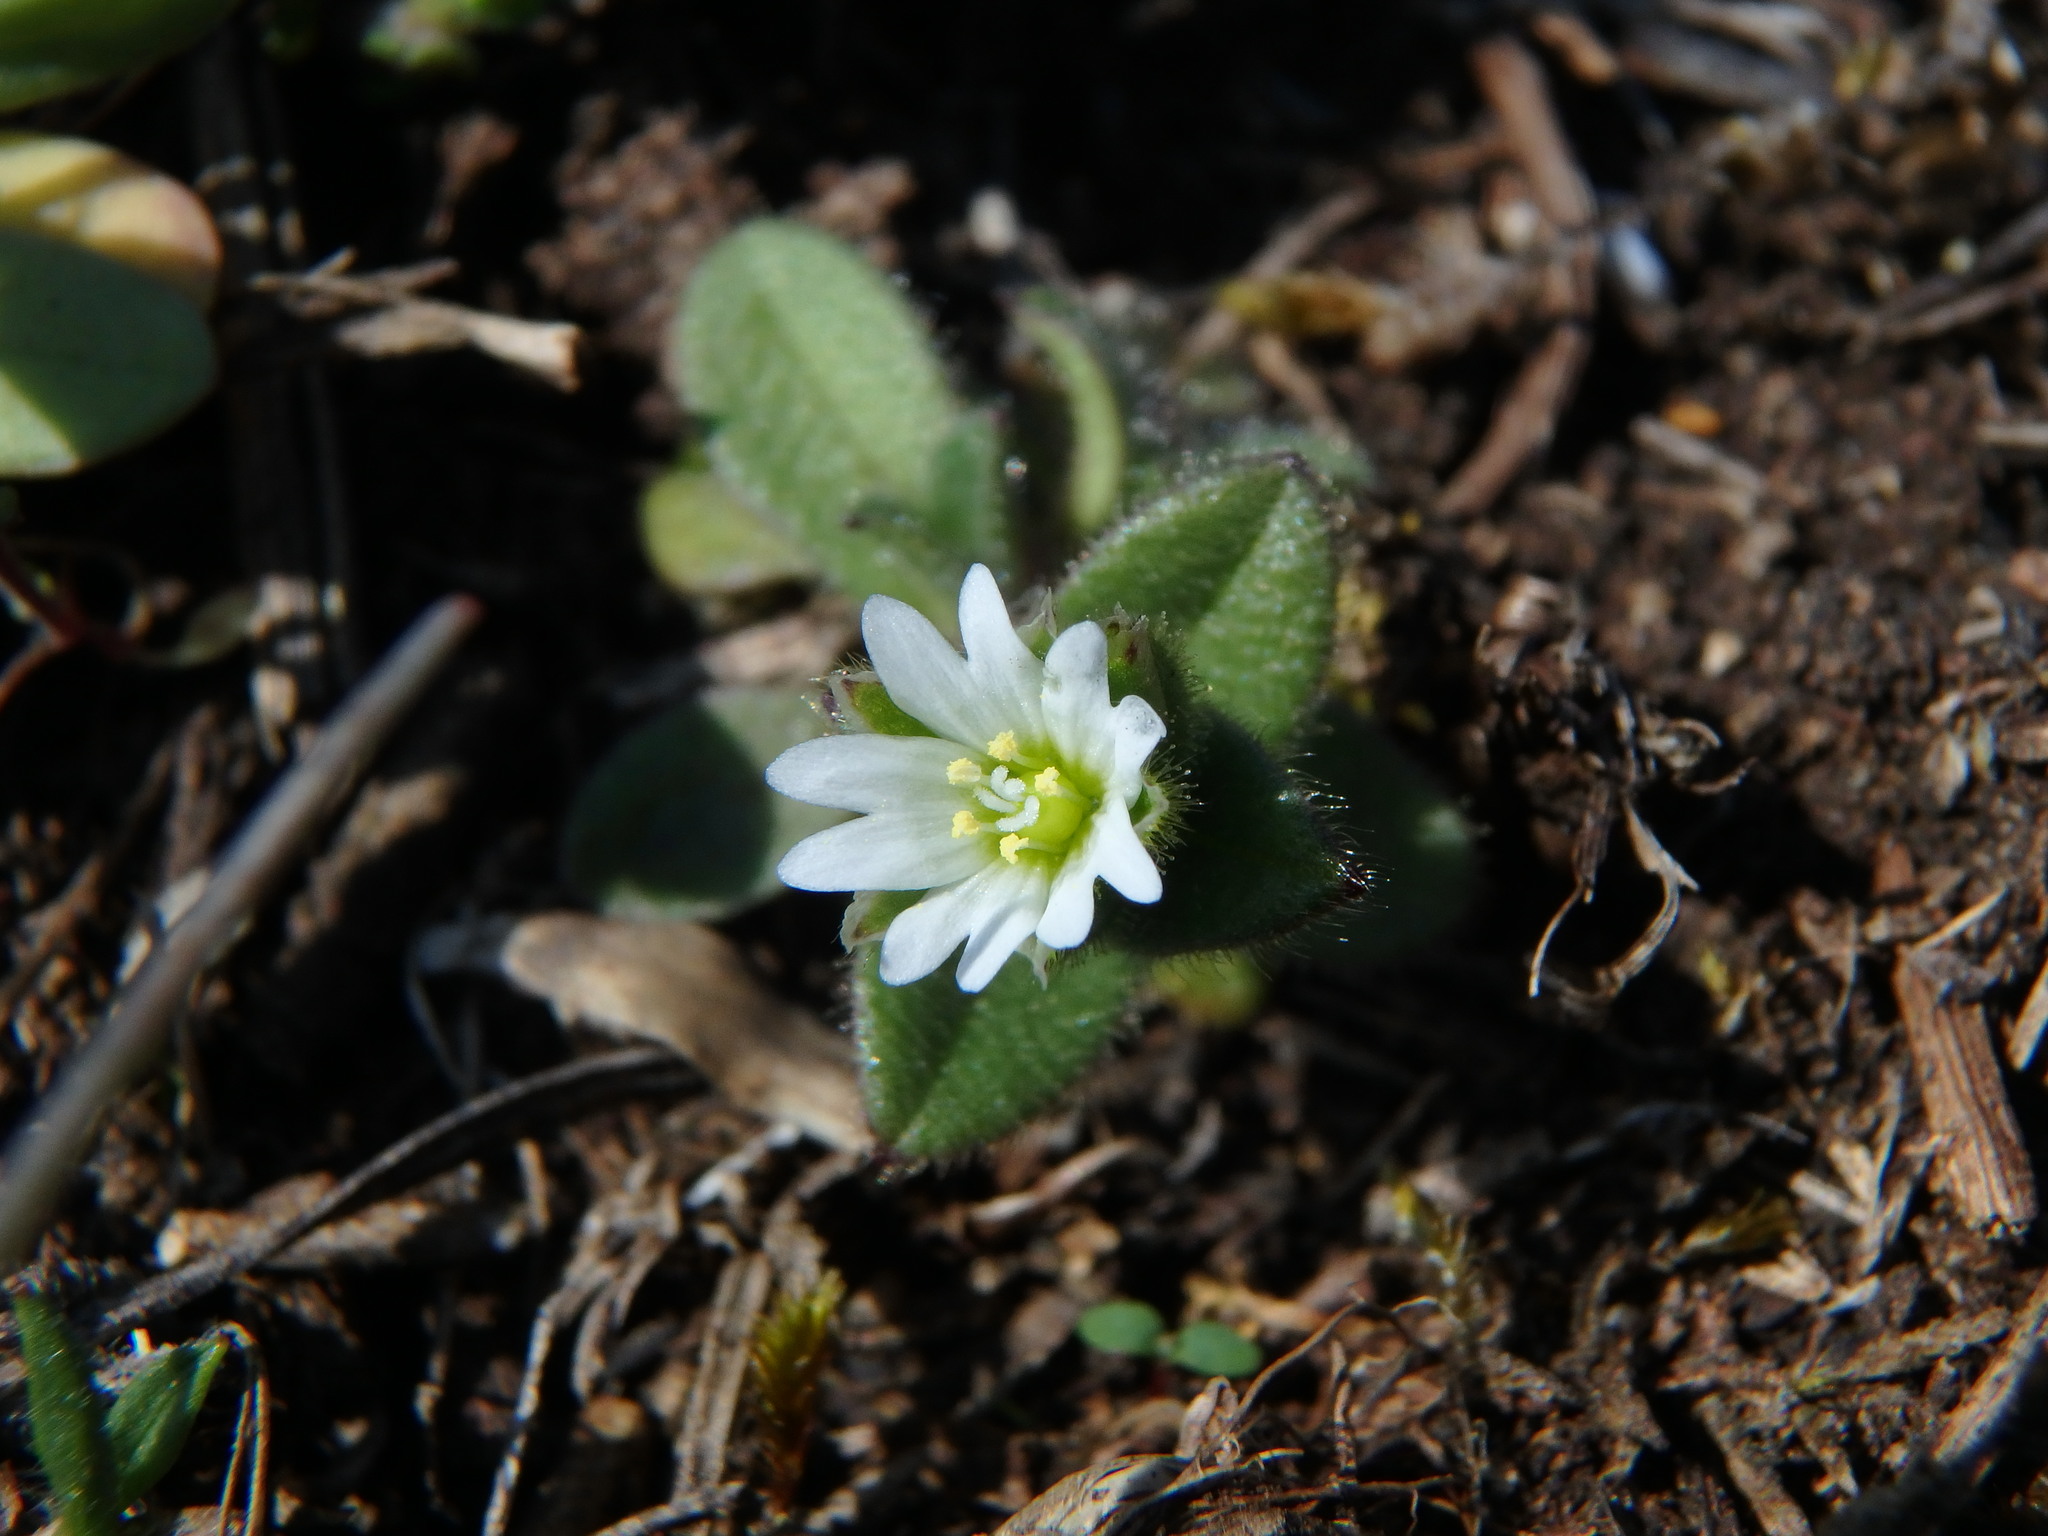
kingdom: Plantae
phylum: Tracheophyta
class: Magnoliopsida
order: Caryophyllales
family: Caryophyllaceae
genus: Cerastium
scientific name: Cerastium pumilum
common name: Dwarf mouse-ear
